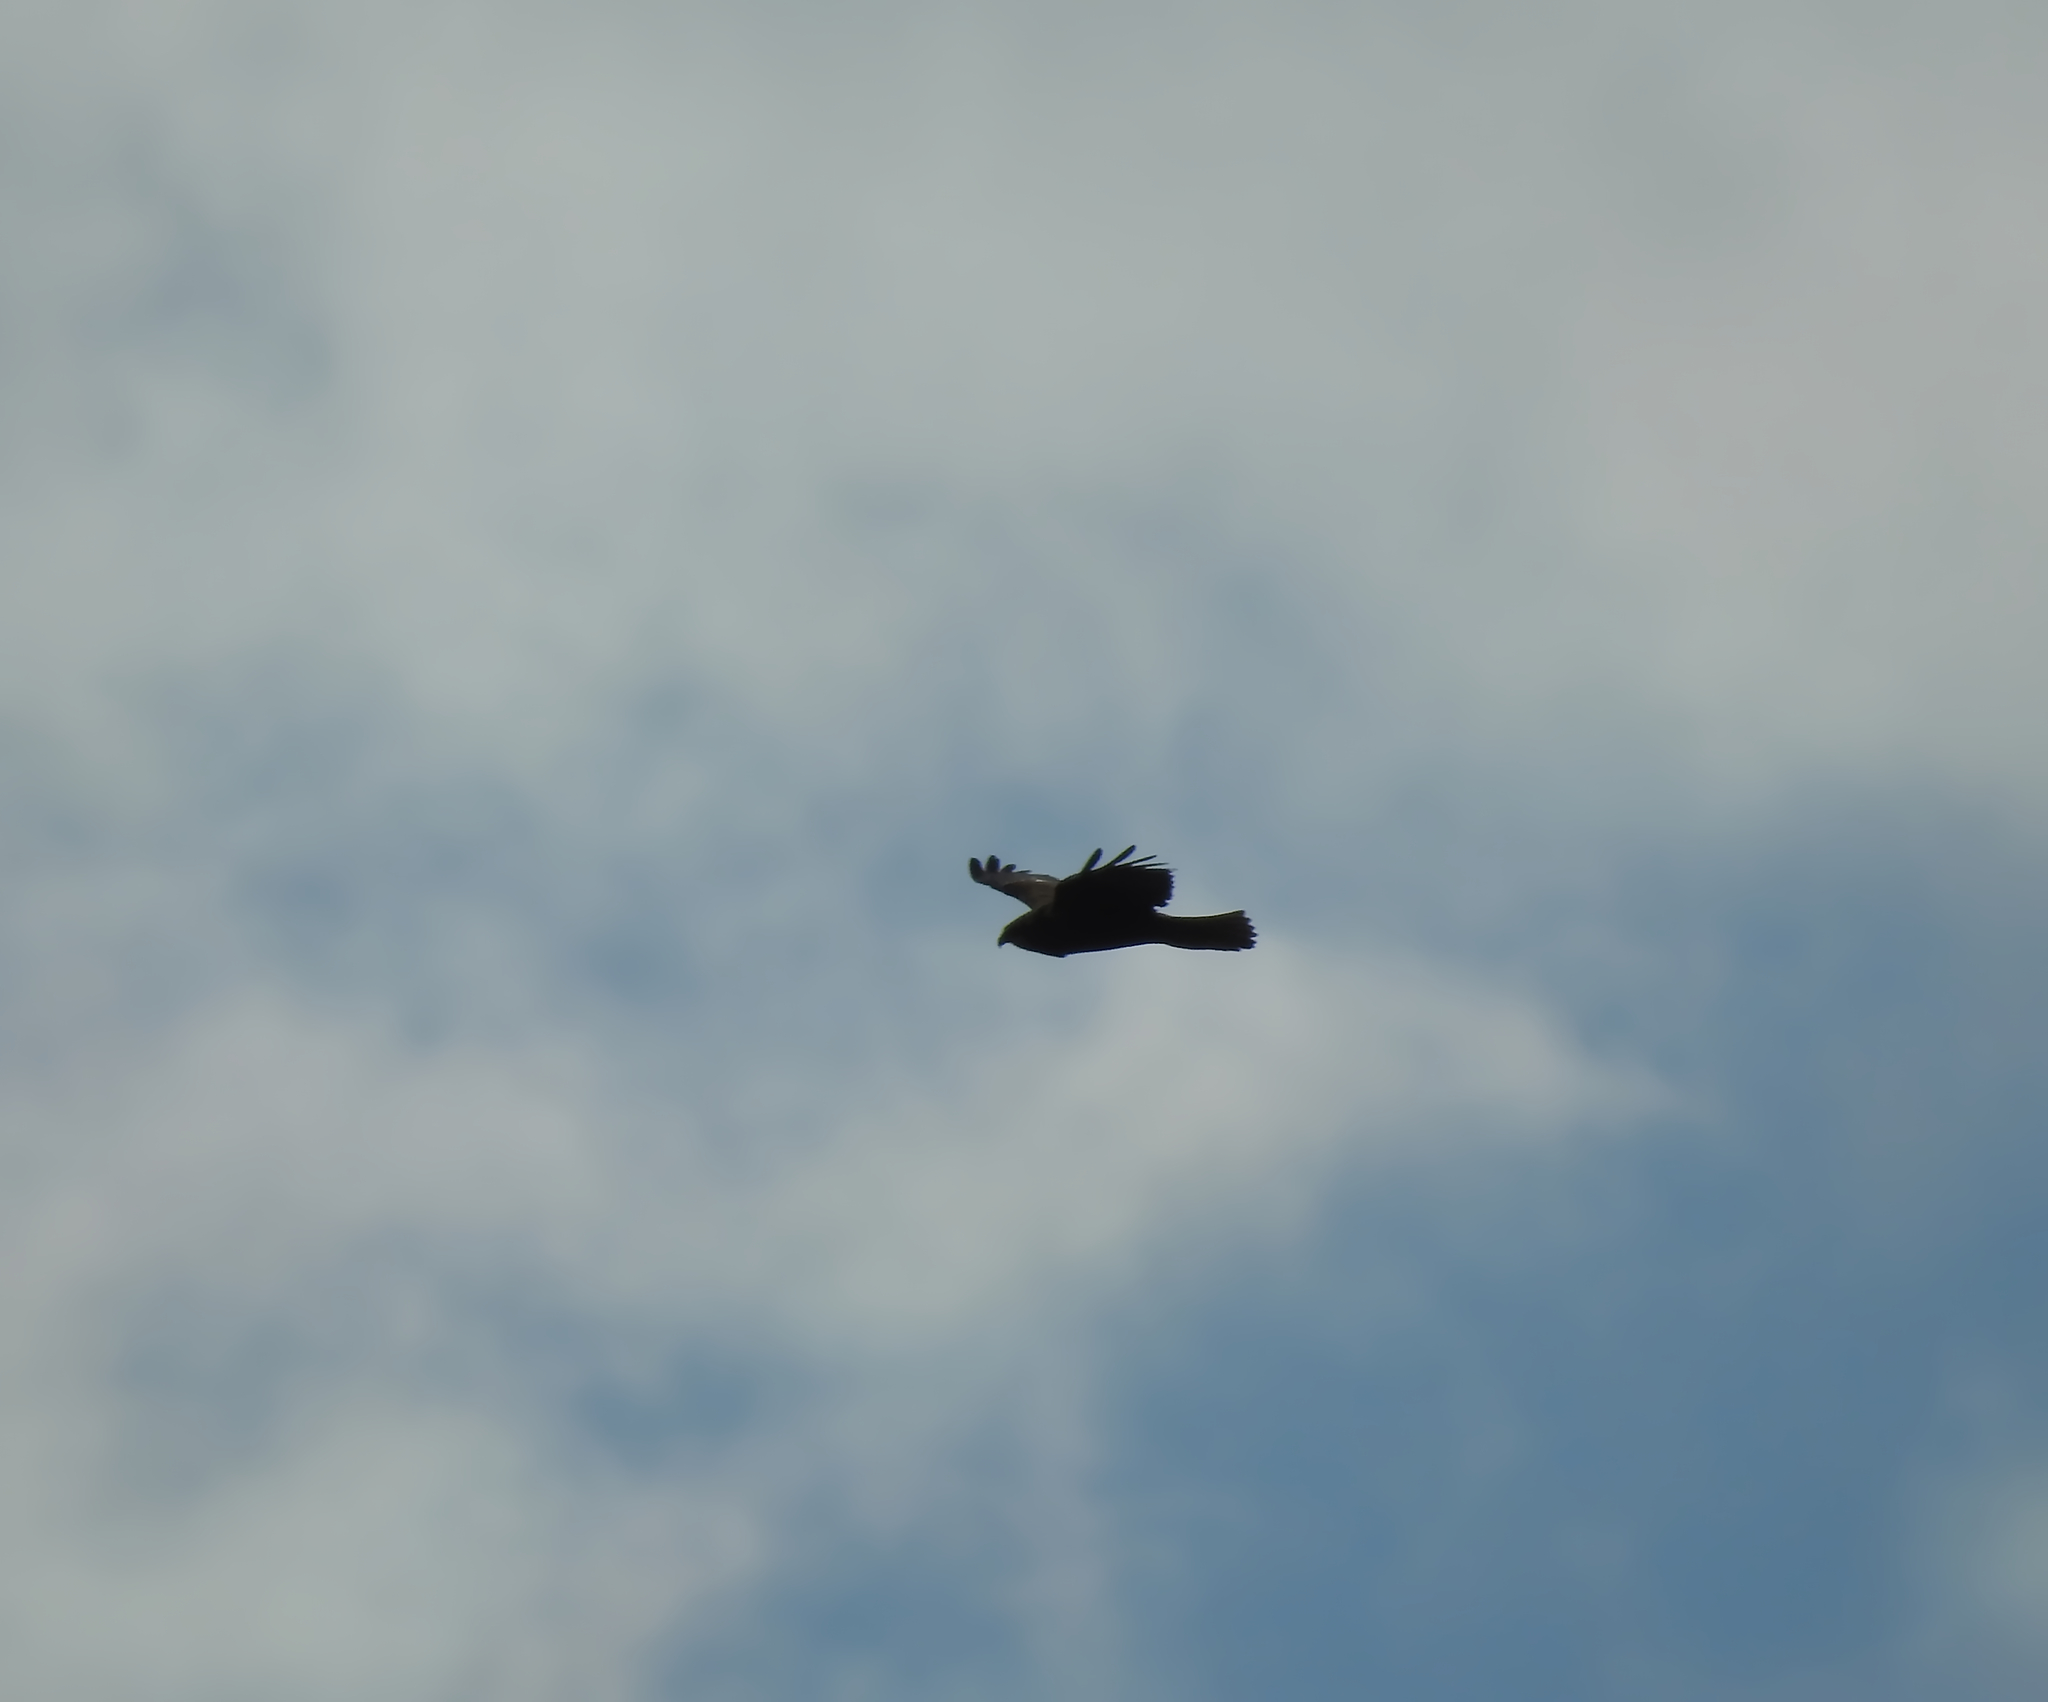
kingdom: Animalia
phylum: Chordata
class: Aves
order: Accipitriformes
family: Accipitridae
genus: Circus
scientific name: Circus aeruginosus
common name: Western marsh harrier
